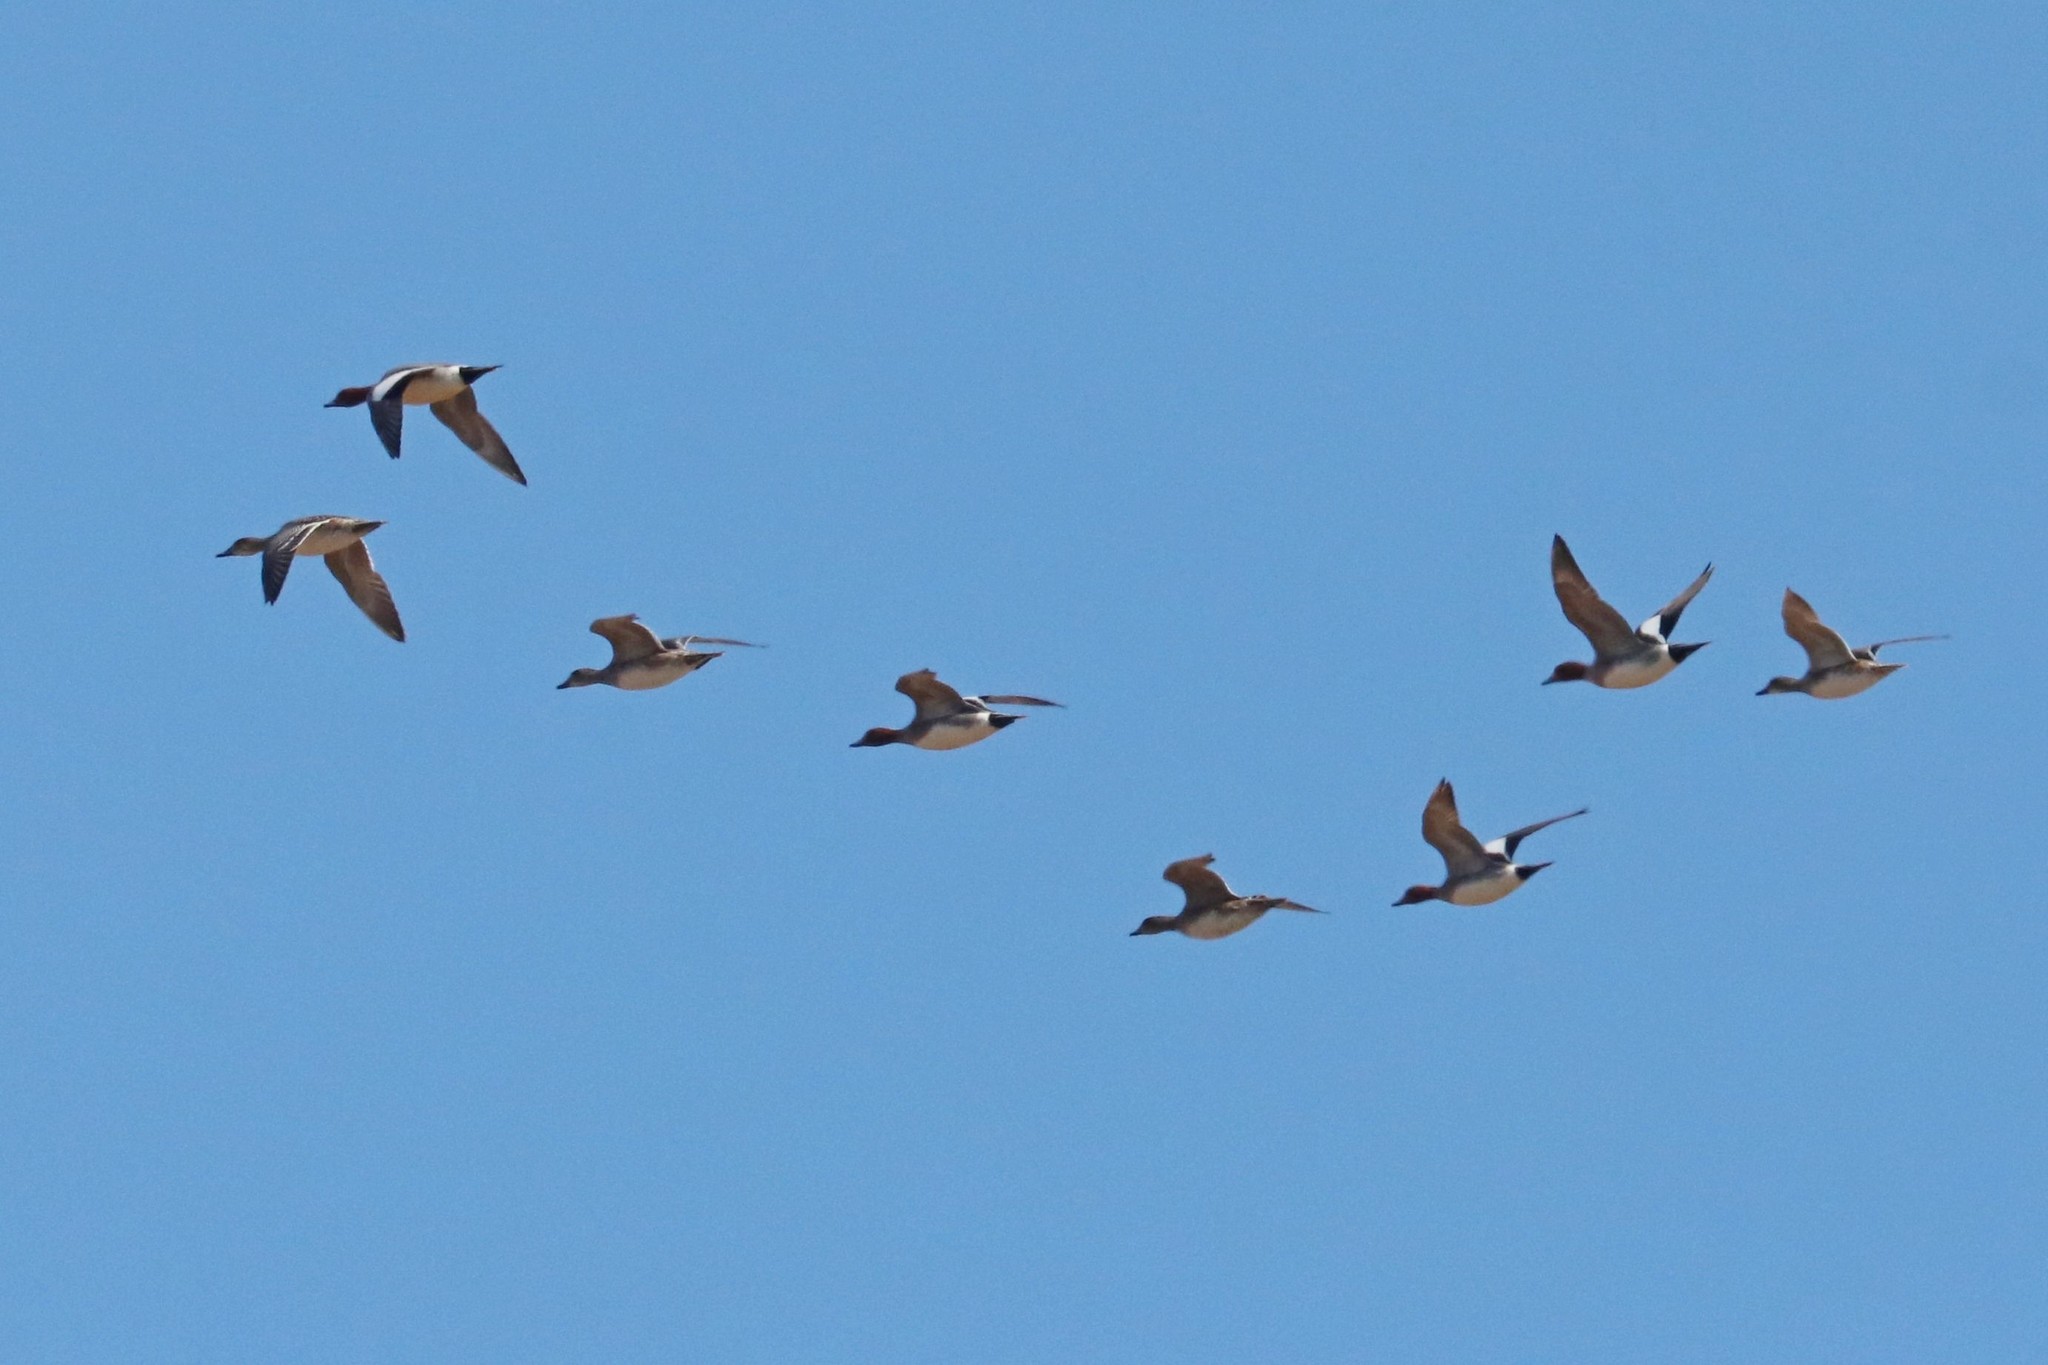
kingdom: Animalia
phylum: Chordata
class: Aves
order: Anseriformes
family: Anatidae
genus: Mareca
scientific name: Mareca penelope
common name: Eurasian wigeon
